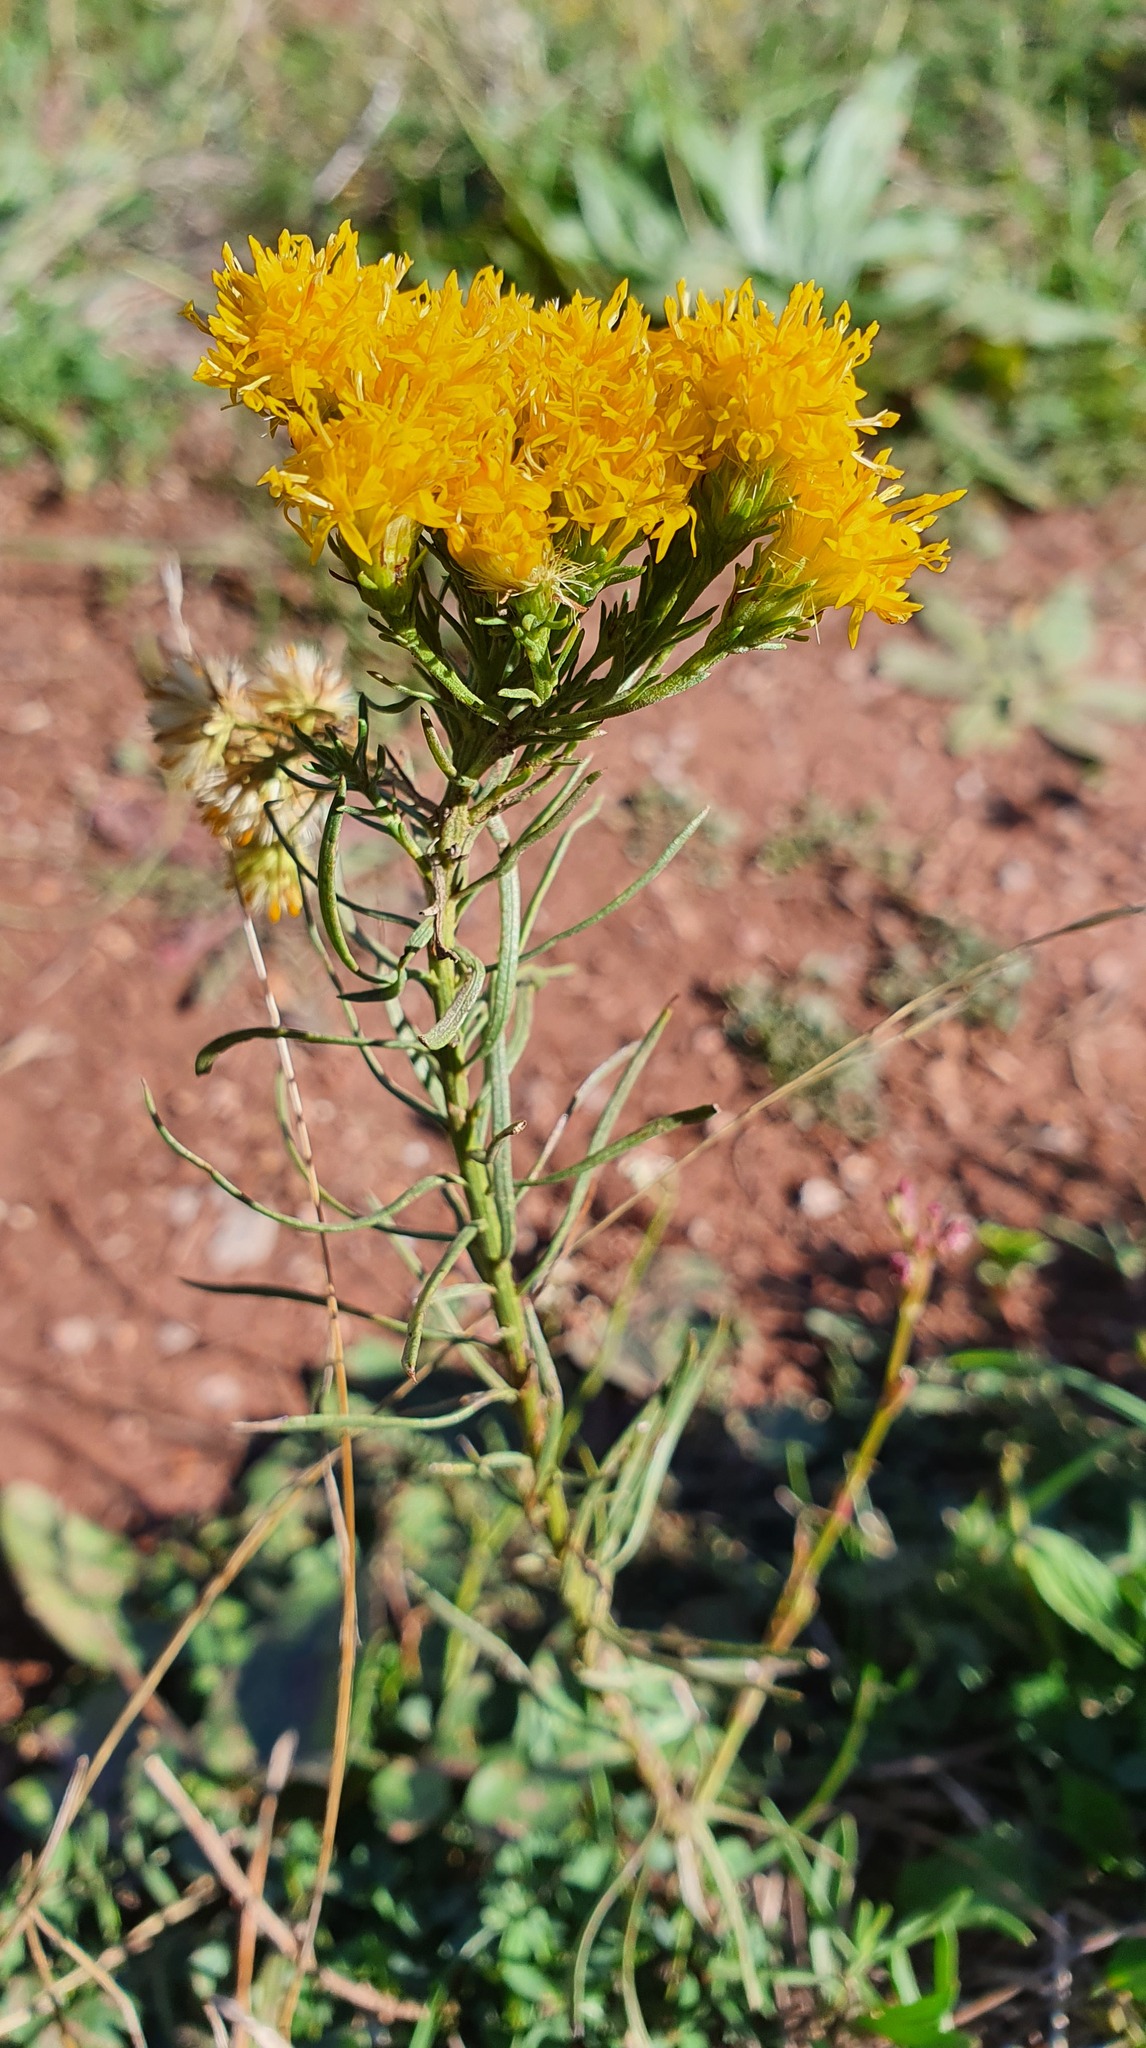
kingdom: Plantae
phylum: Tracheophyta
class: Magnoliopsida
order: Asterales
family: Asteraceae
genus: Galatella
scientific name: Galatella linosyris
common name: Goldilocks aster
